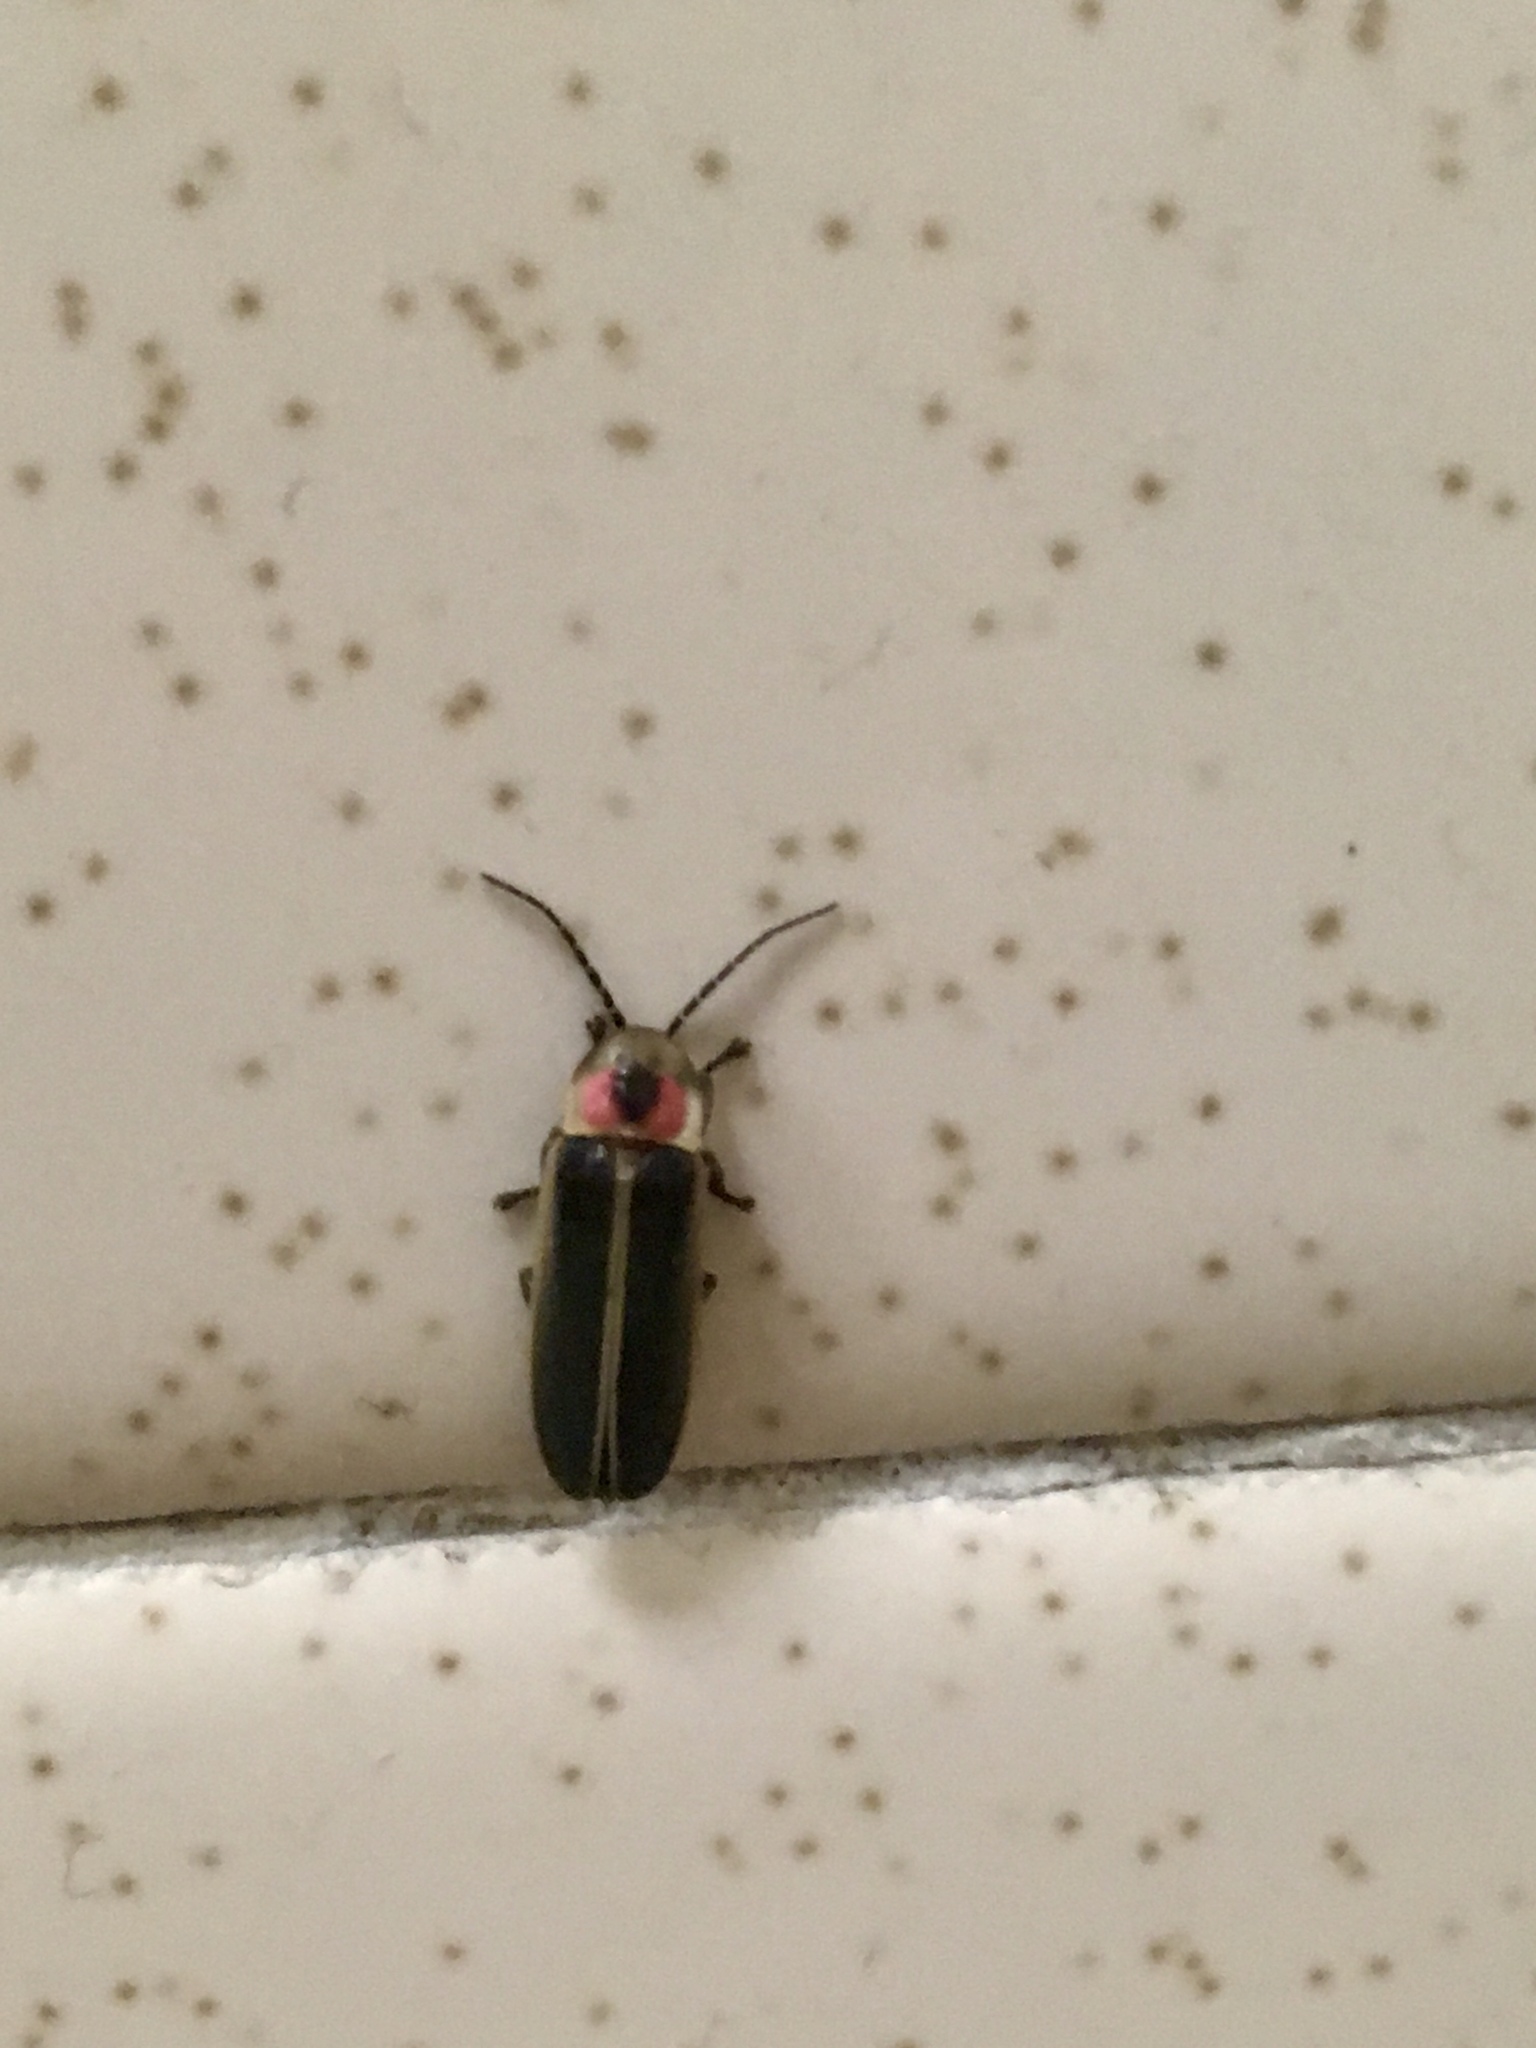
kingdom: Animalia
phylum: Arthropoda
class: Insecta
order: Coleoptera
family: Lampyridae
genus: Photinus
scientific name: Photinus pyralis
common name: Big dipper firefly
